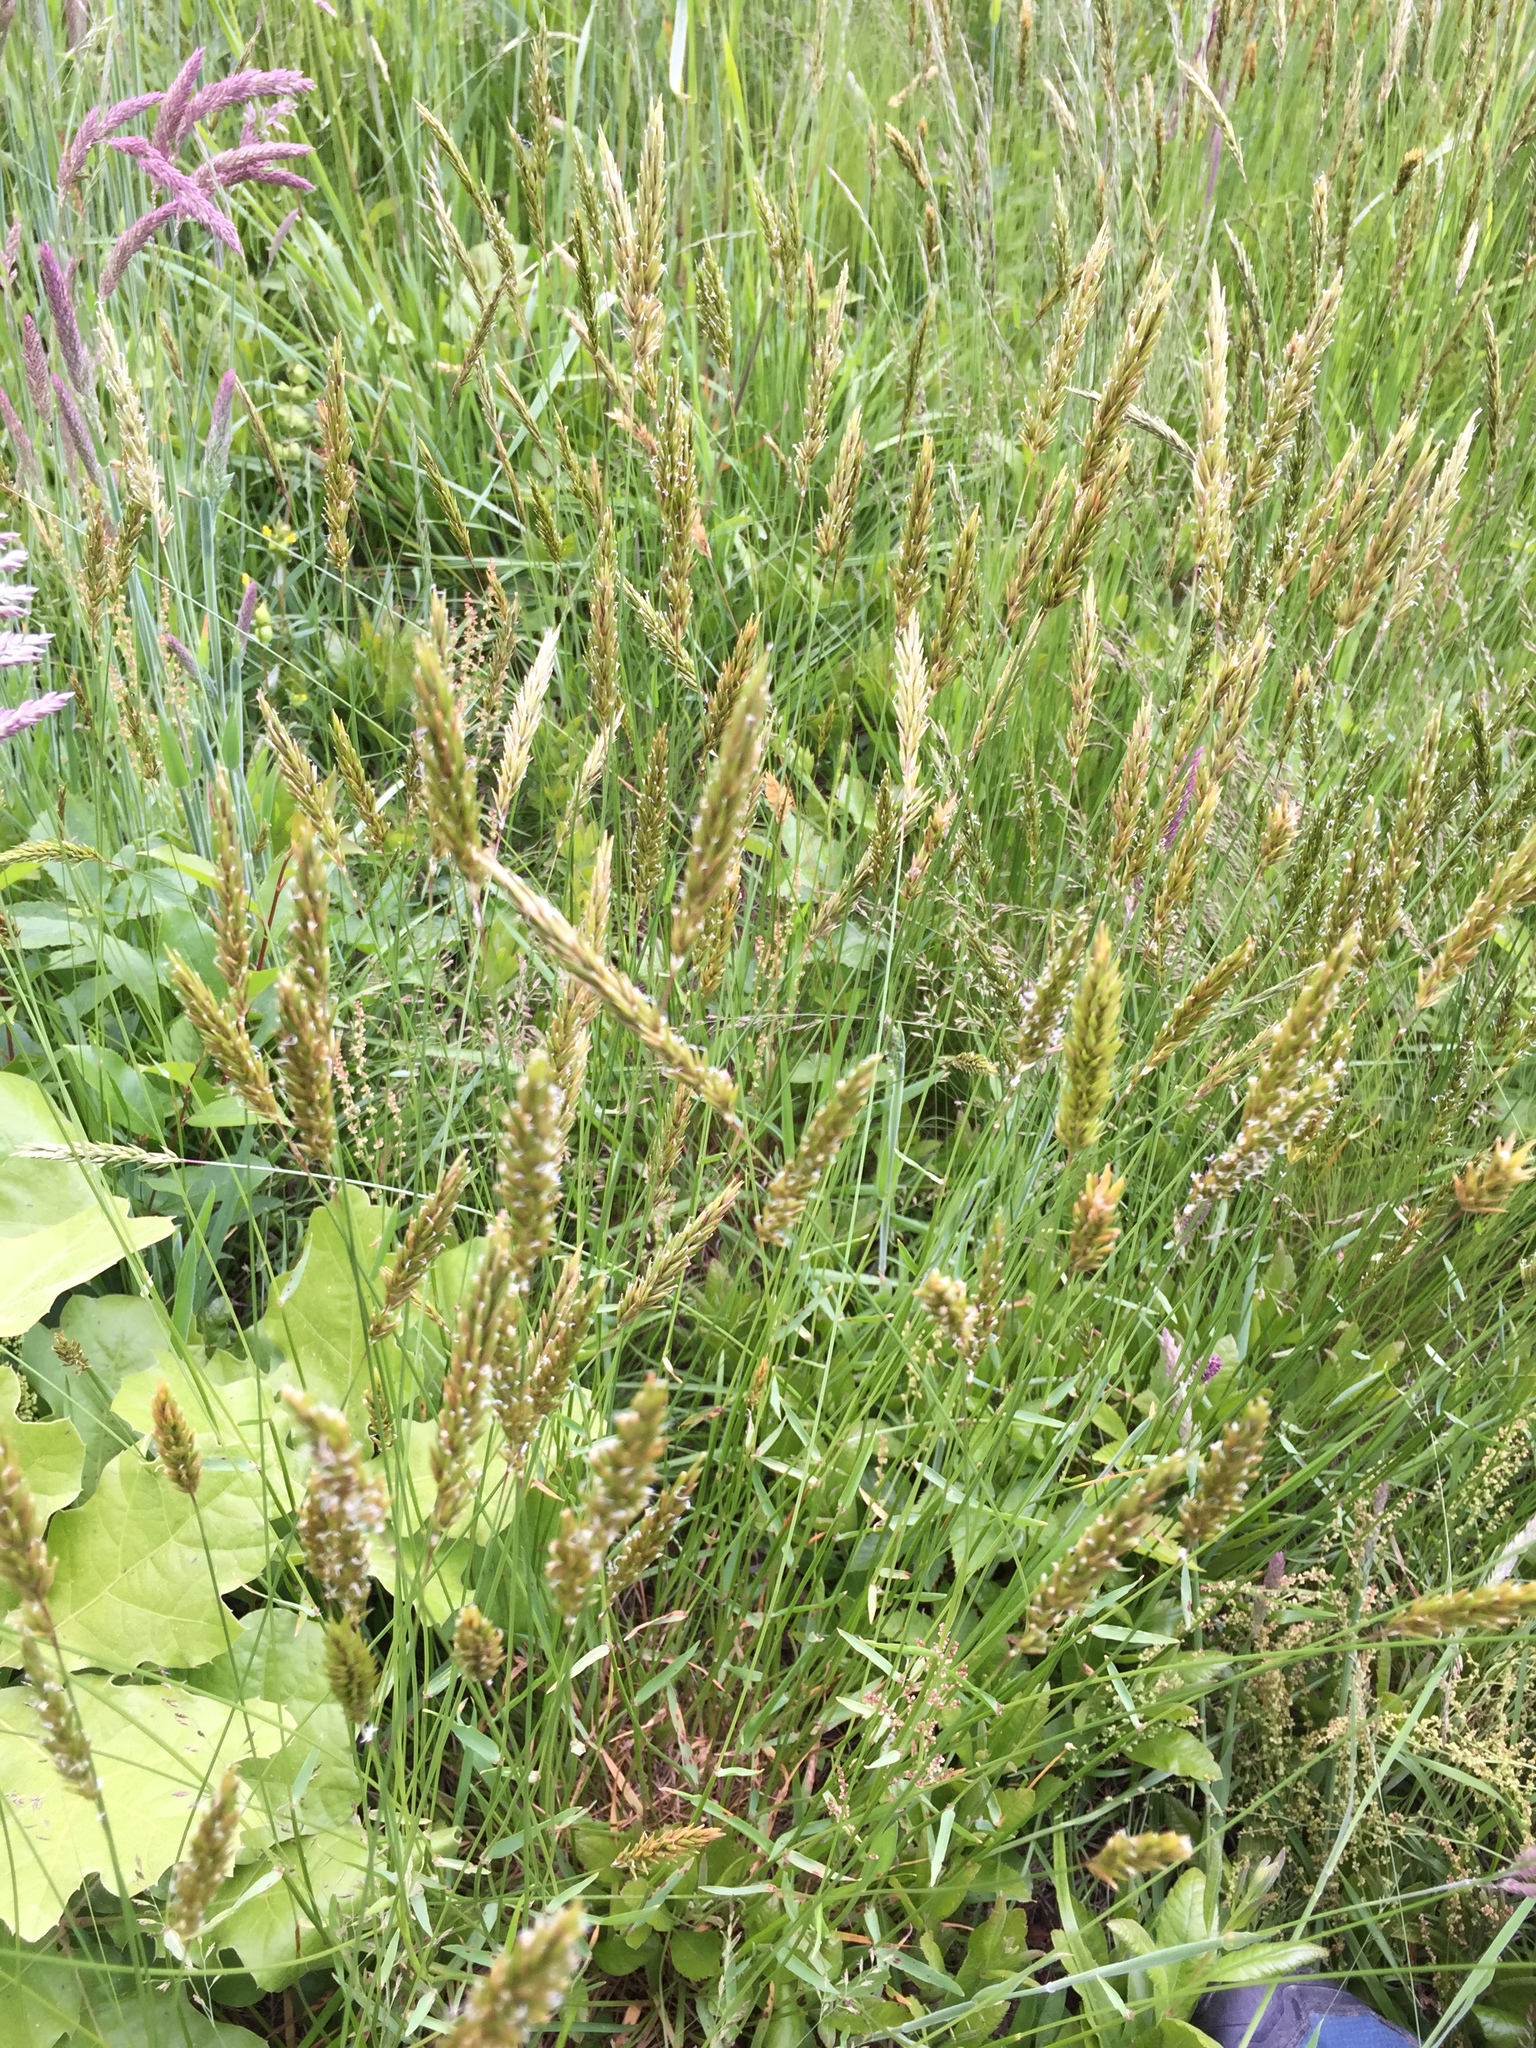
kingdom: Plantae
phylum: Tracheophyta
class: Liliopsida
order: Poales
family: Poaceae
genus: Anthoxanthum
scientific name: Anthoxanthum odoratum
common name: Sweet vernalgrass
